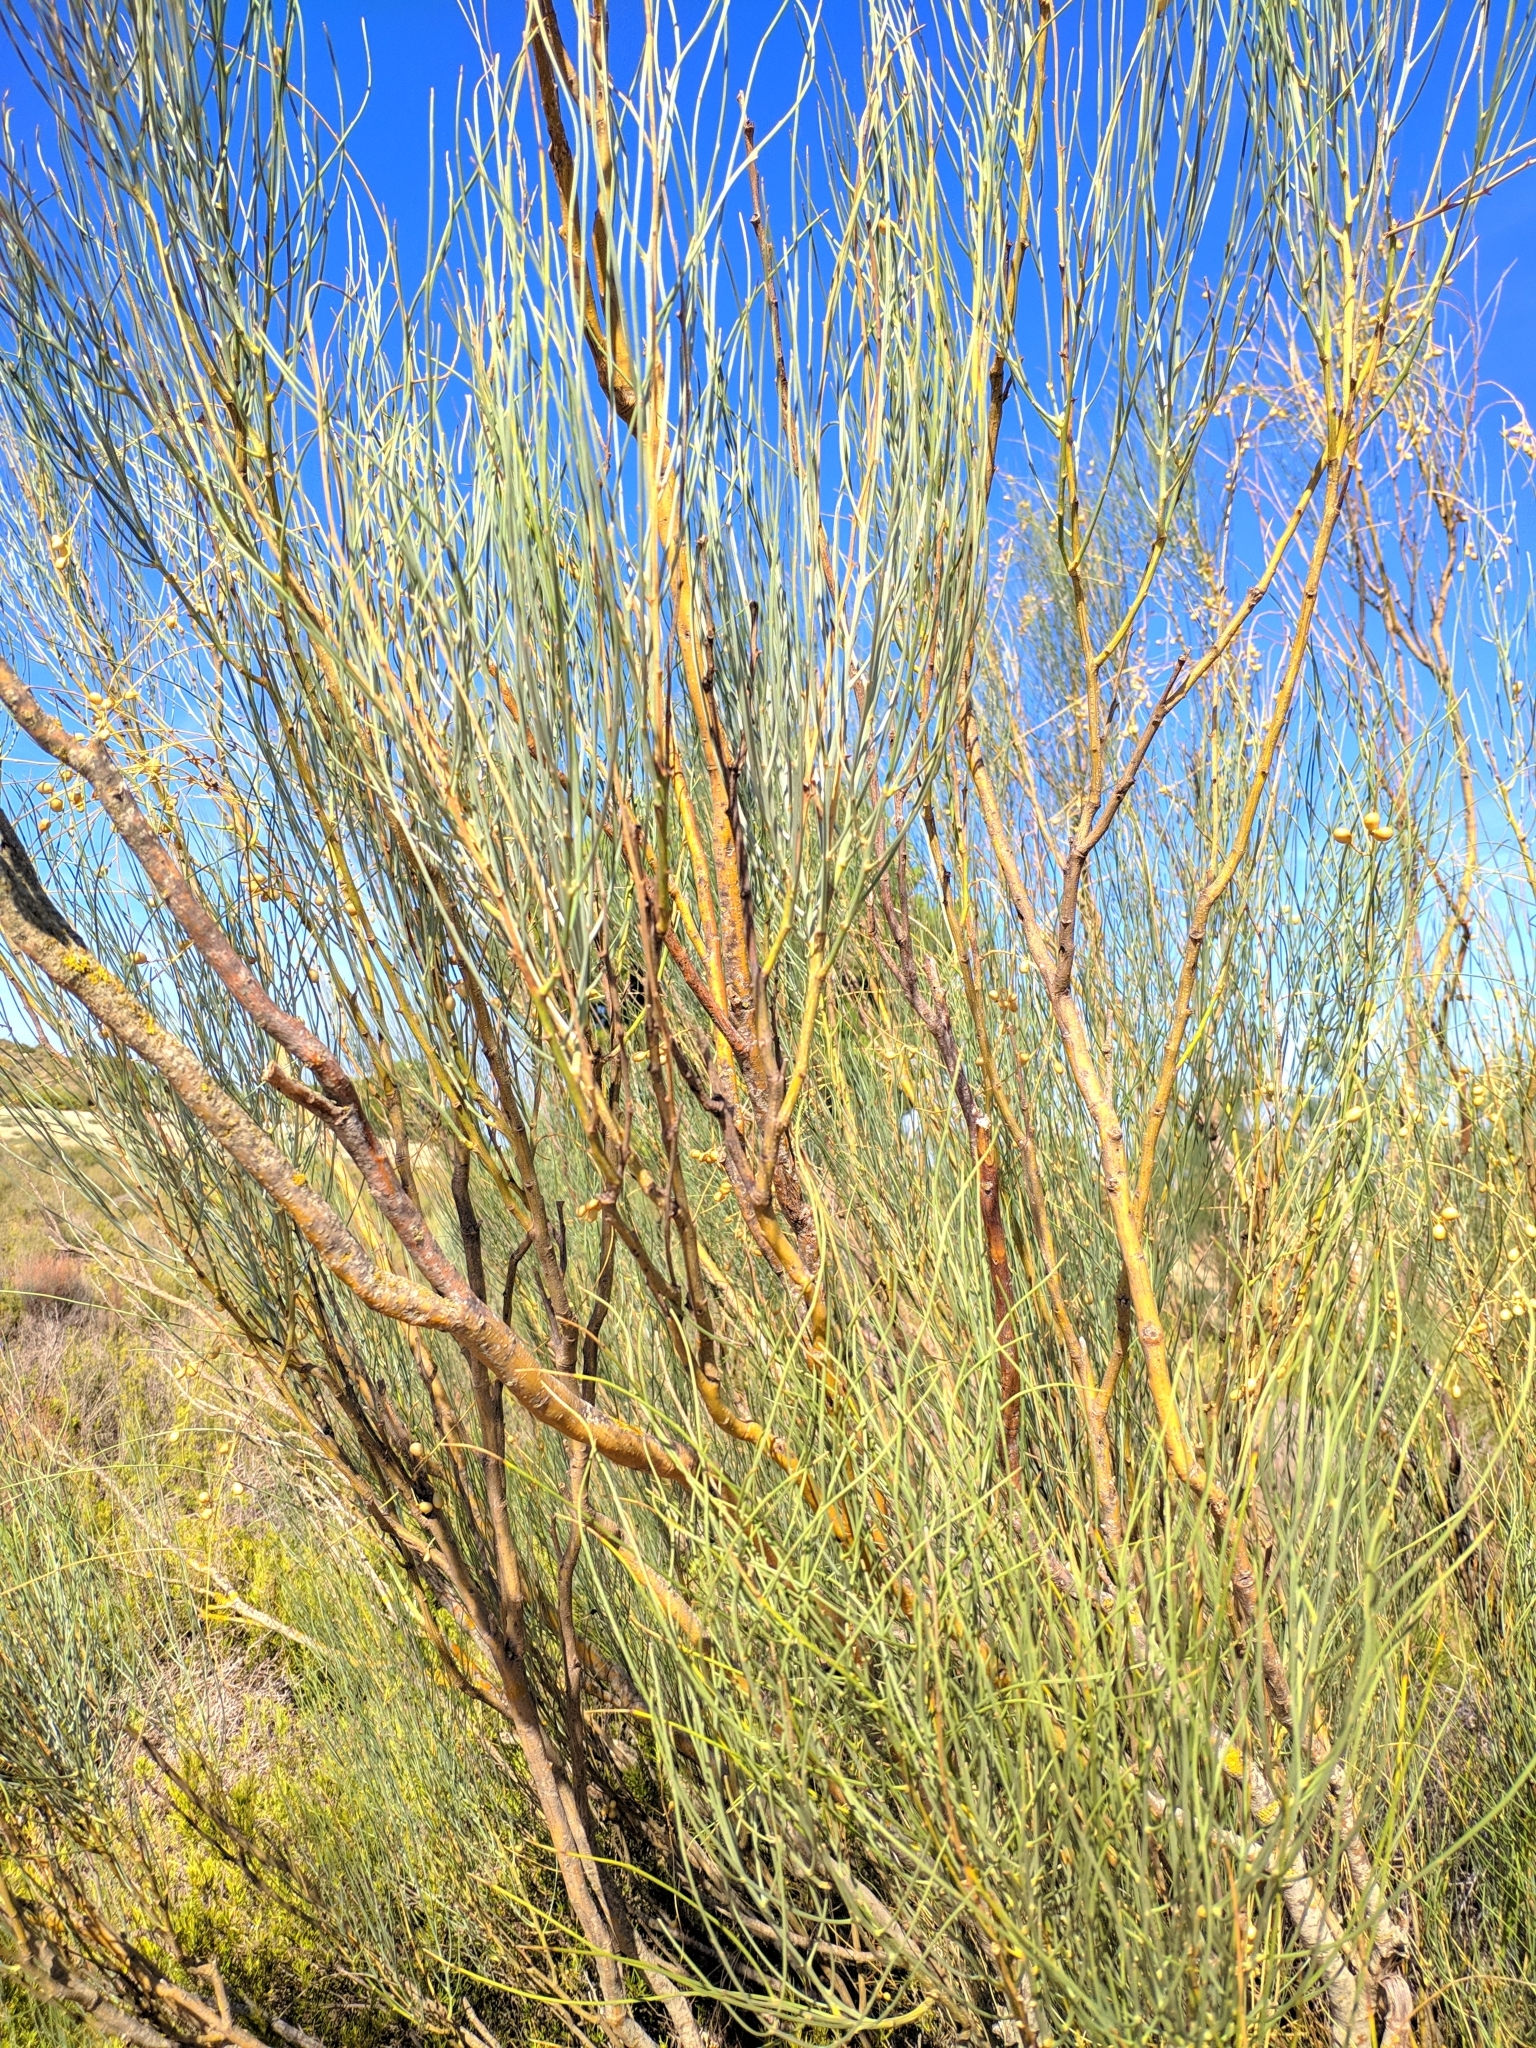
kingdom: Plantae
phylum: Tracheophyta
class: Magnoliopsida
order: Fabales
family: Fabaceae
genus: Retama
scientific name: Retama sphaerocarpa
